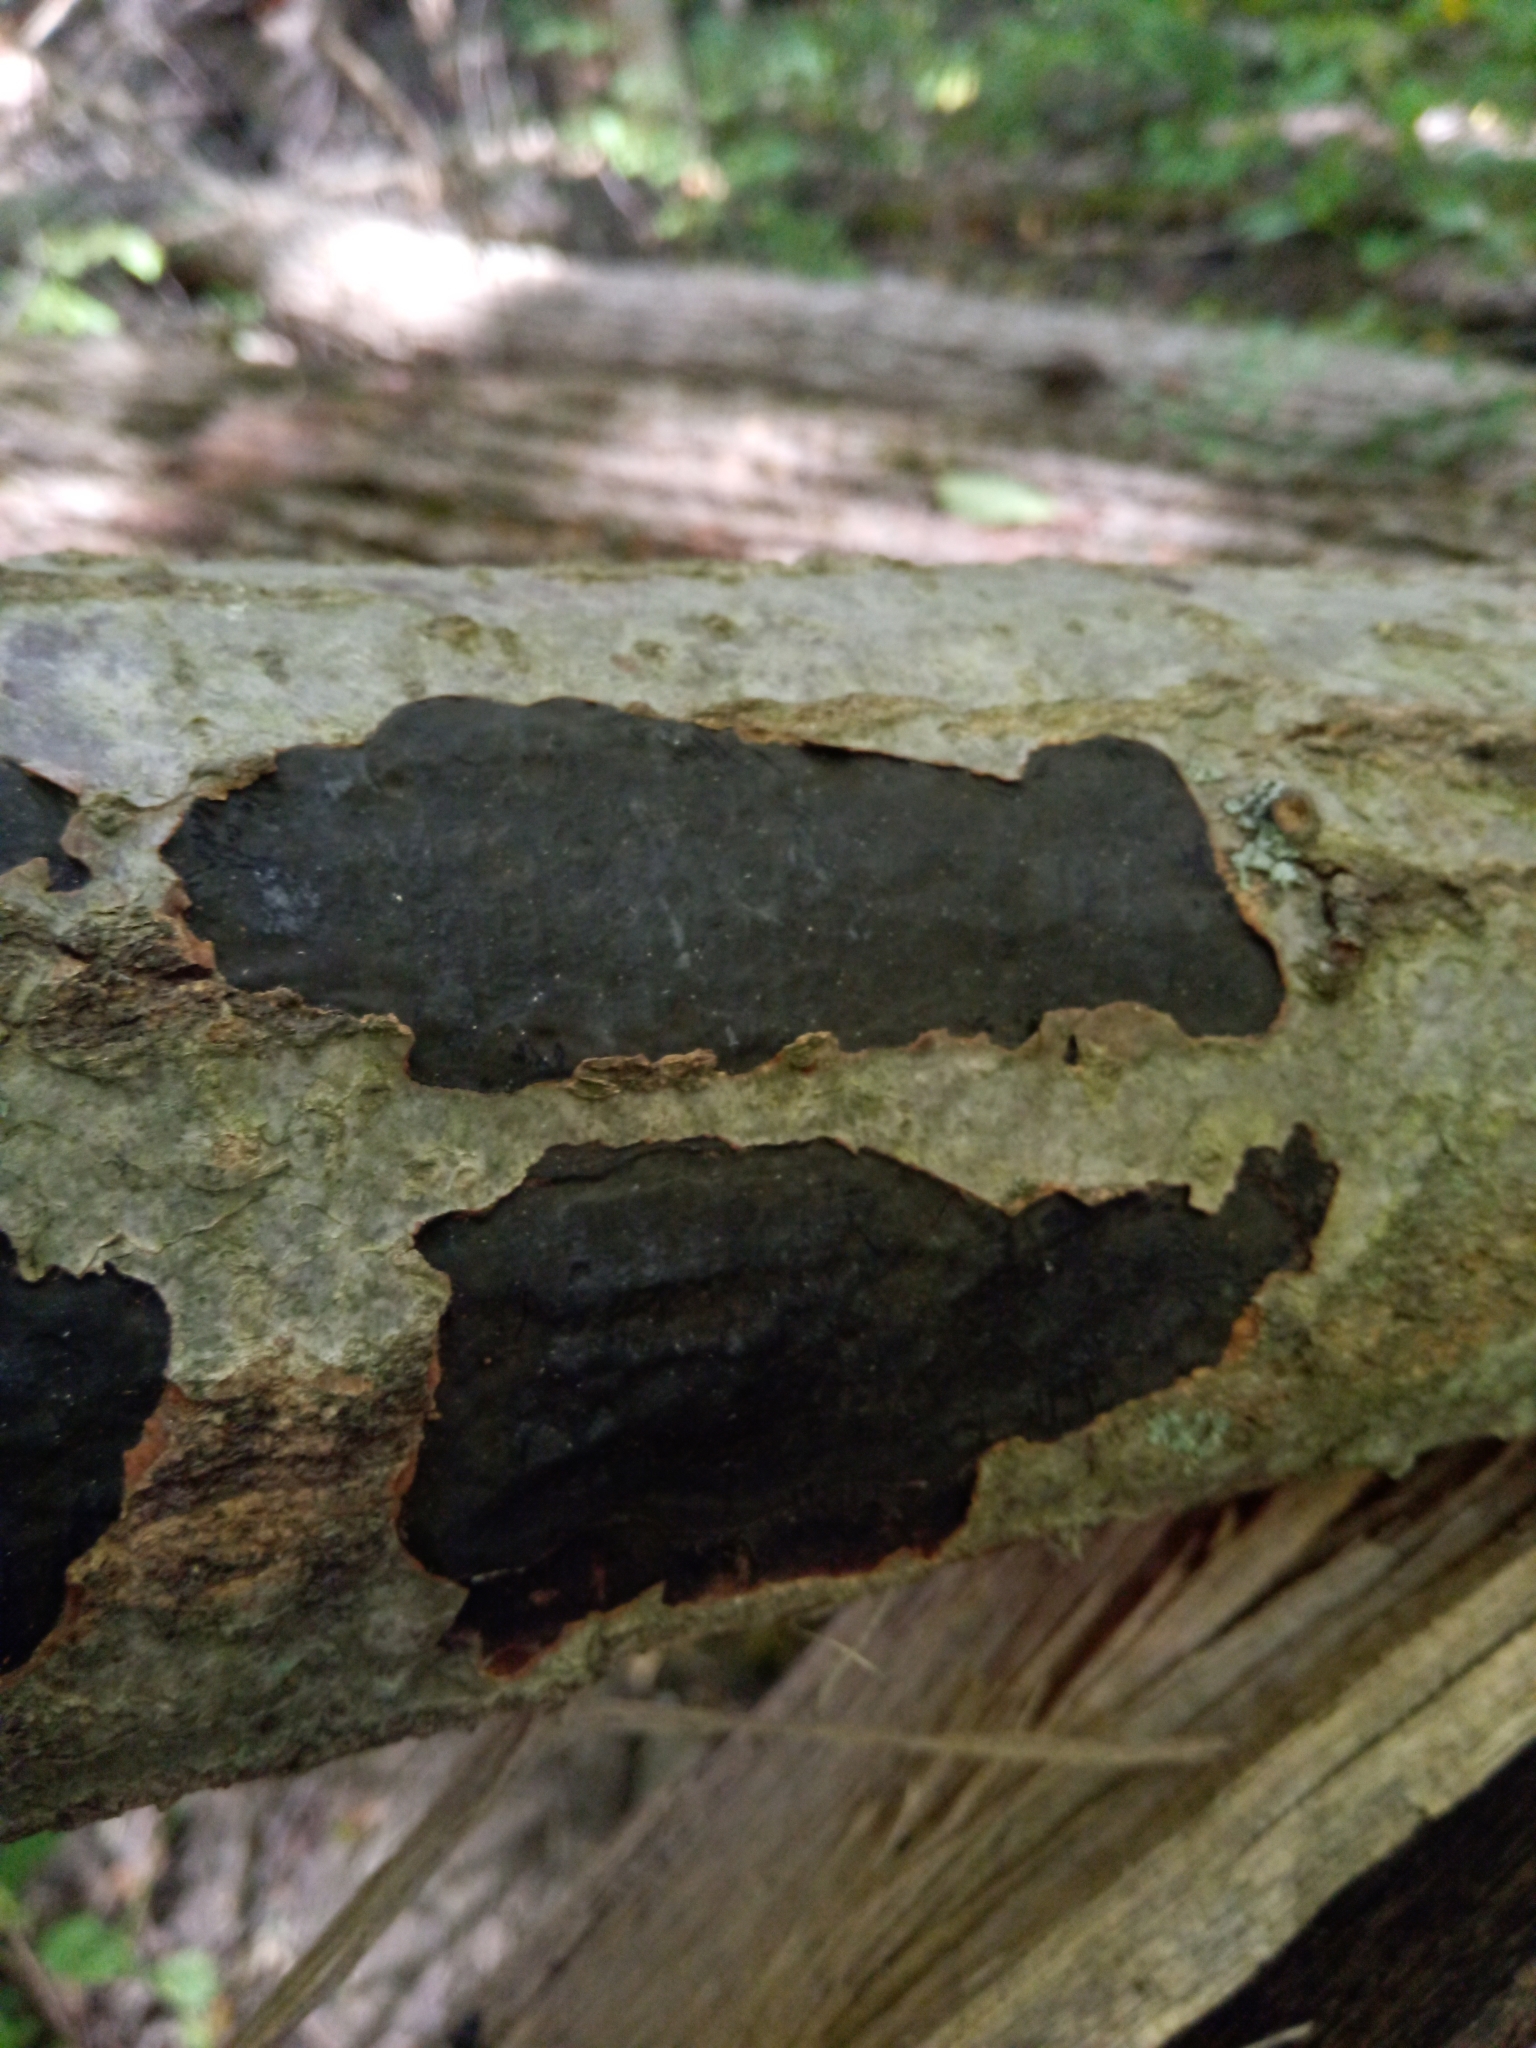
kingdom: Fungi
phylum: Ascomycota
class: Sordariomycetes
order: Xylariales
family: Graphostromataceae
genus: Camillea
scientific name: Camillea punctulata
